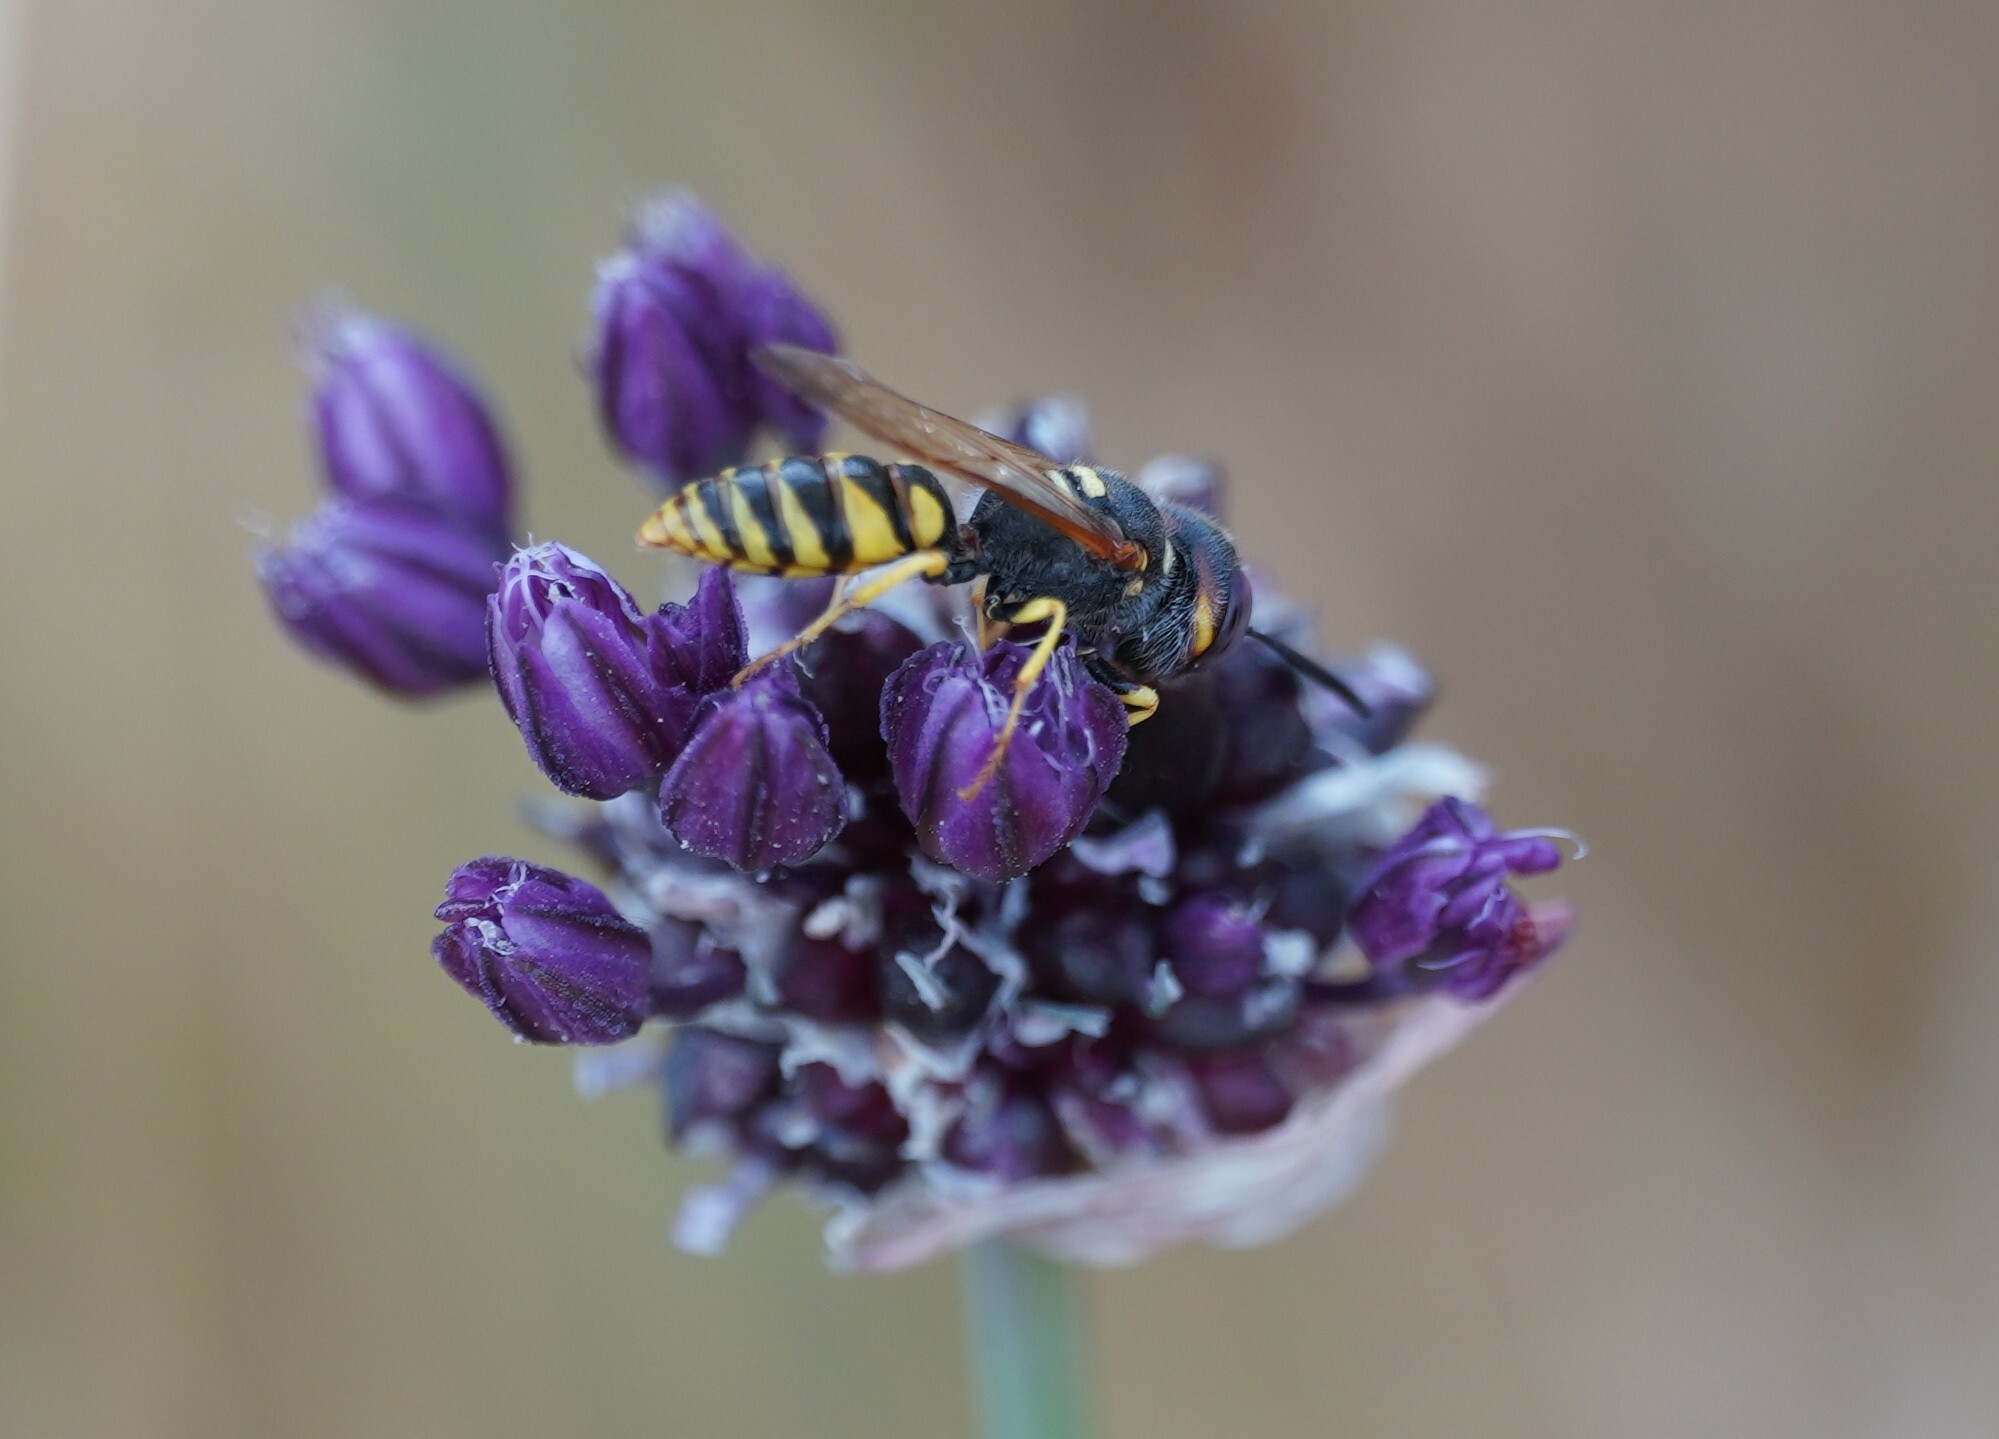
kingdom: Animalia
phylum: Arthropoda
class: Insecta
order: Hymenoptera
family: Crabronidae
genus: Philanthus
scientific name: Philanthus triangulum
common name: Bee wolf
